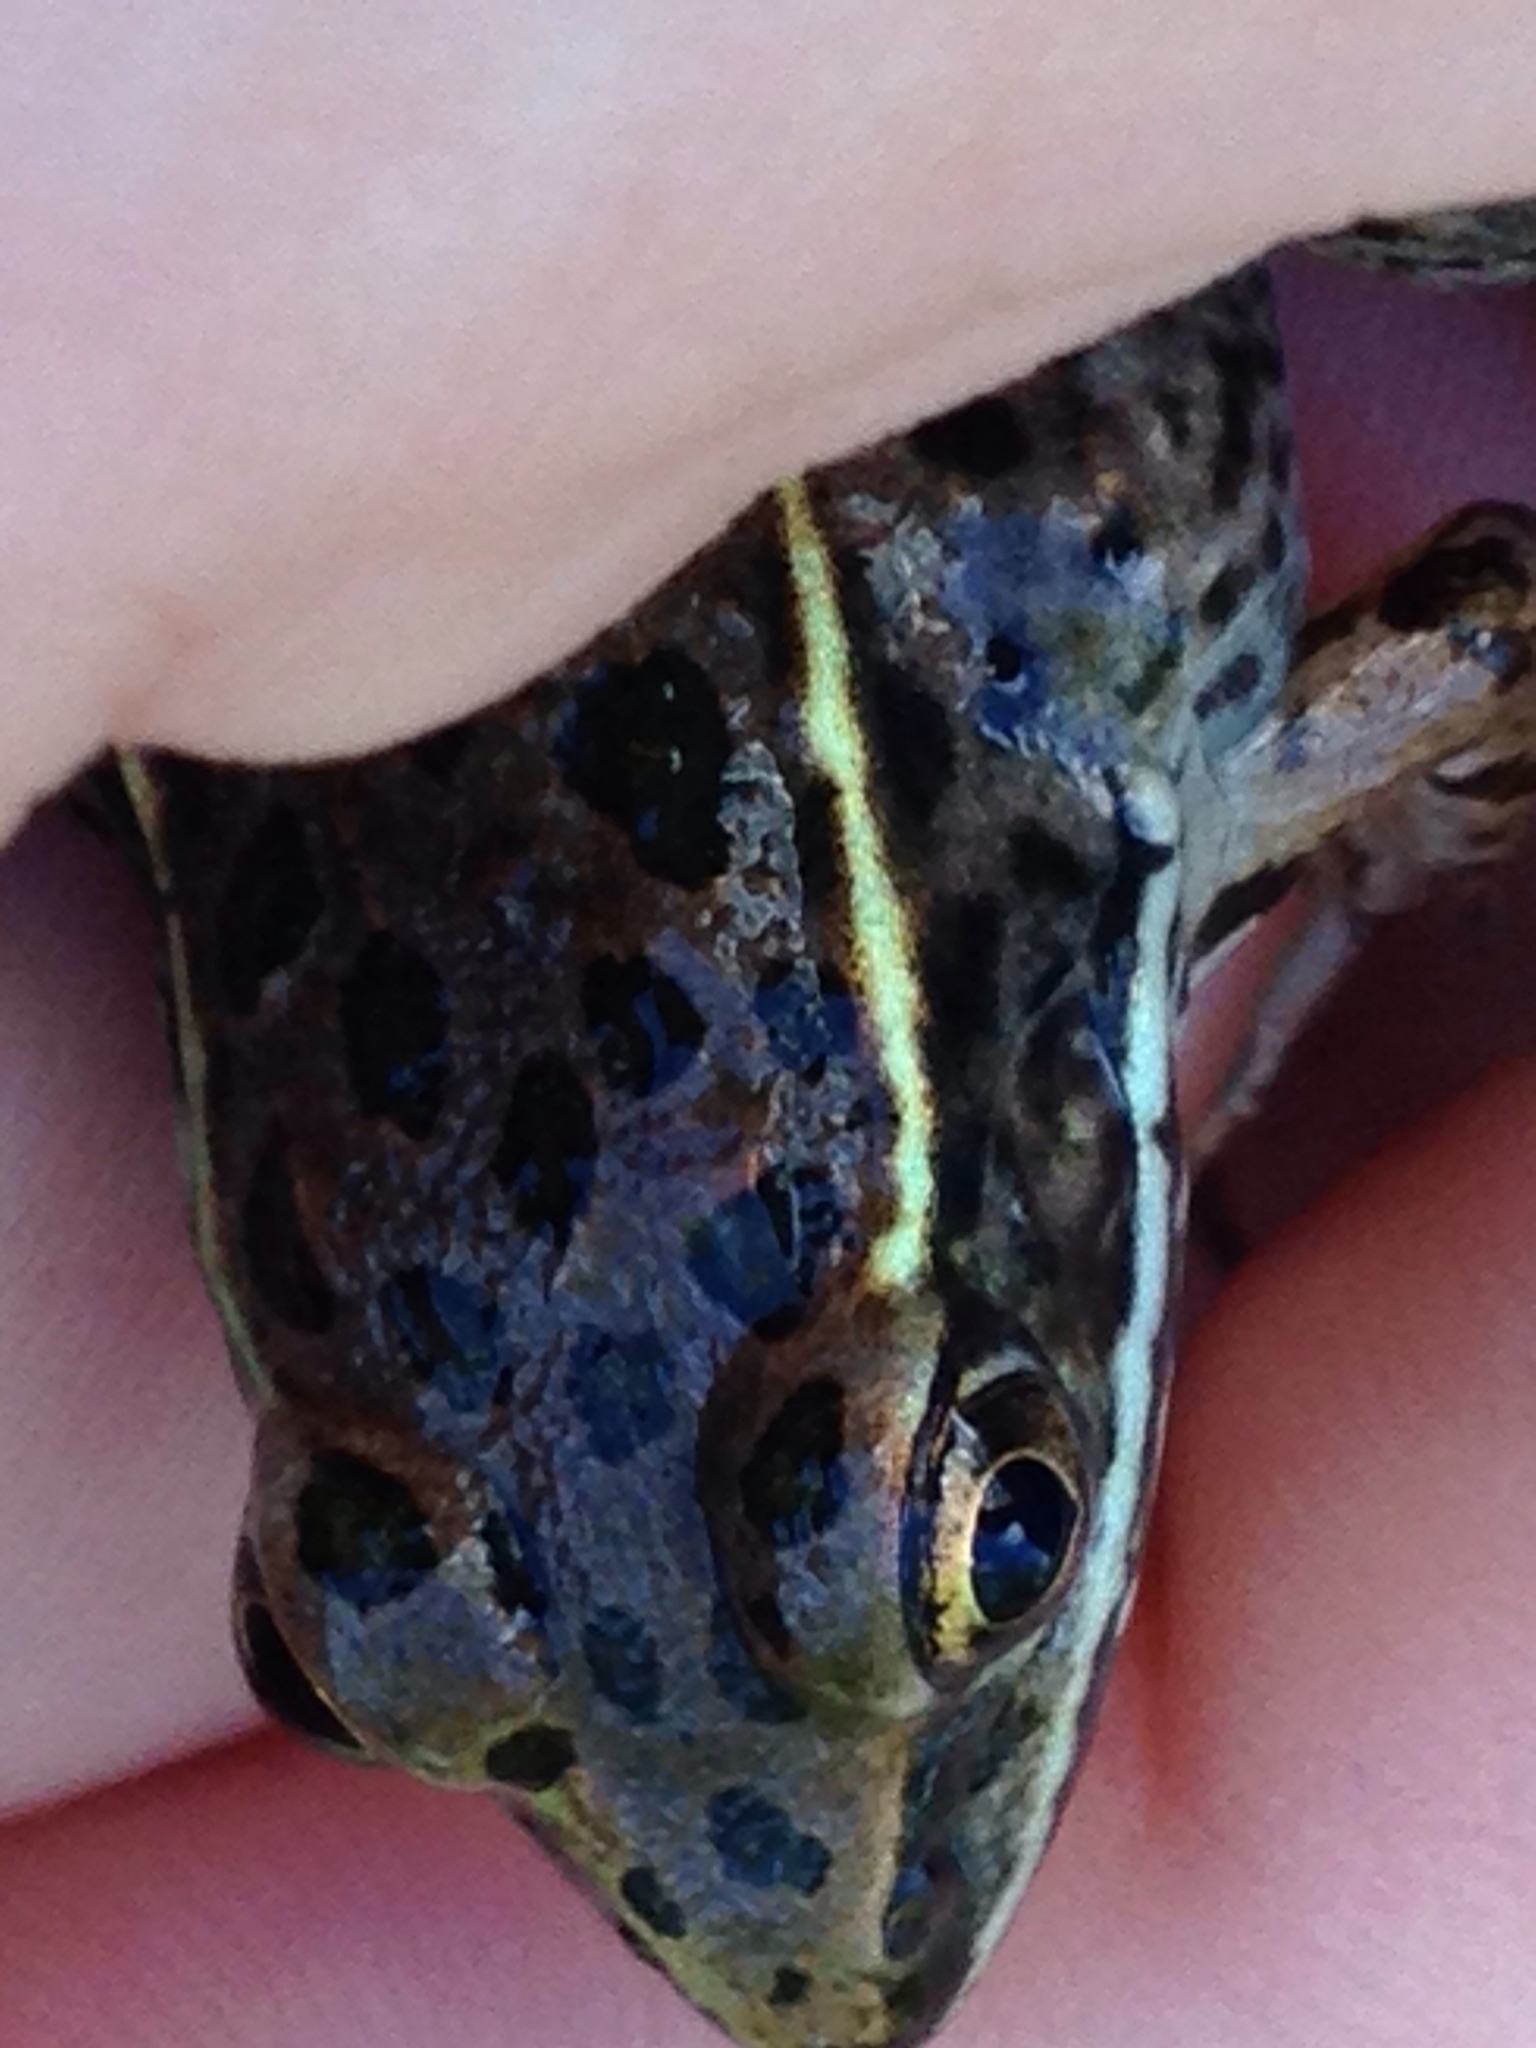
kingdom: Animalia
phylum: Chordata
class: Amphibia
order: Anura
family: Ranidae
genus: Lithobates
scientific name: Lithobates pipiens
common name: Northern leopard frog
